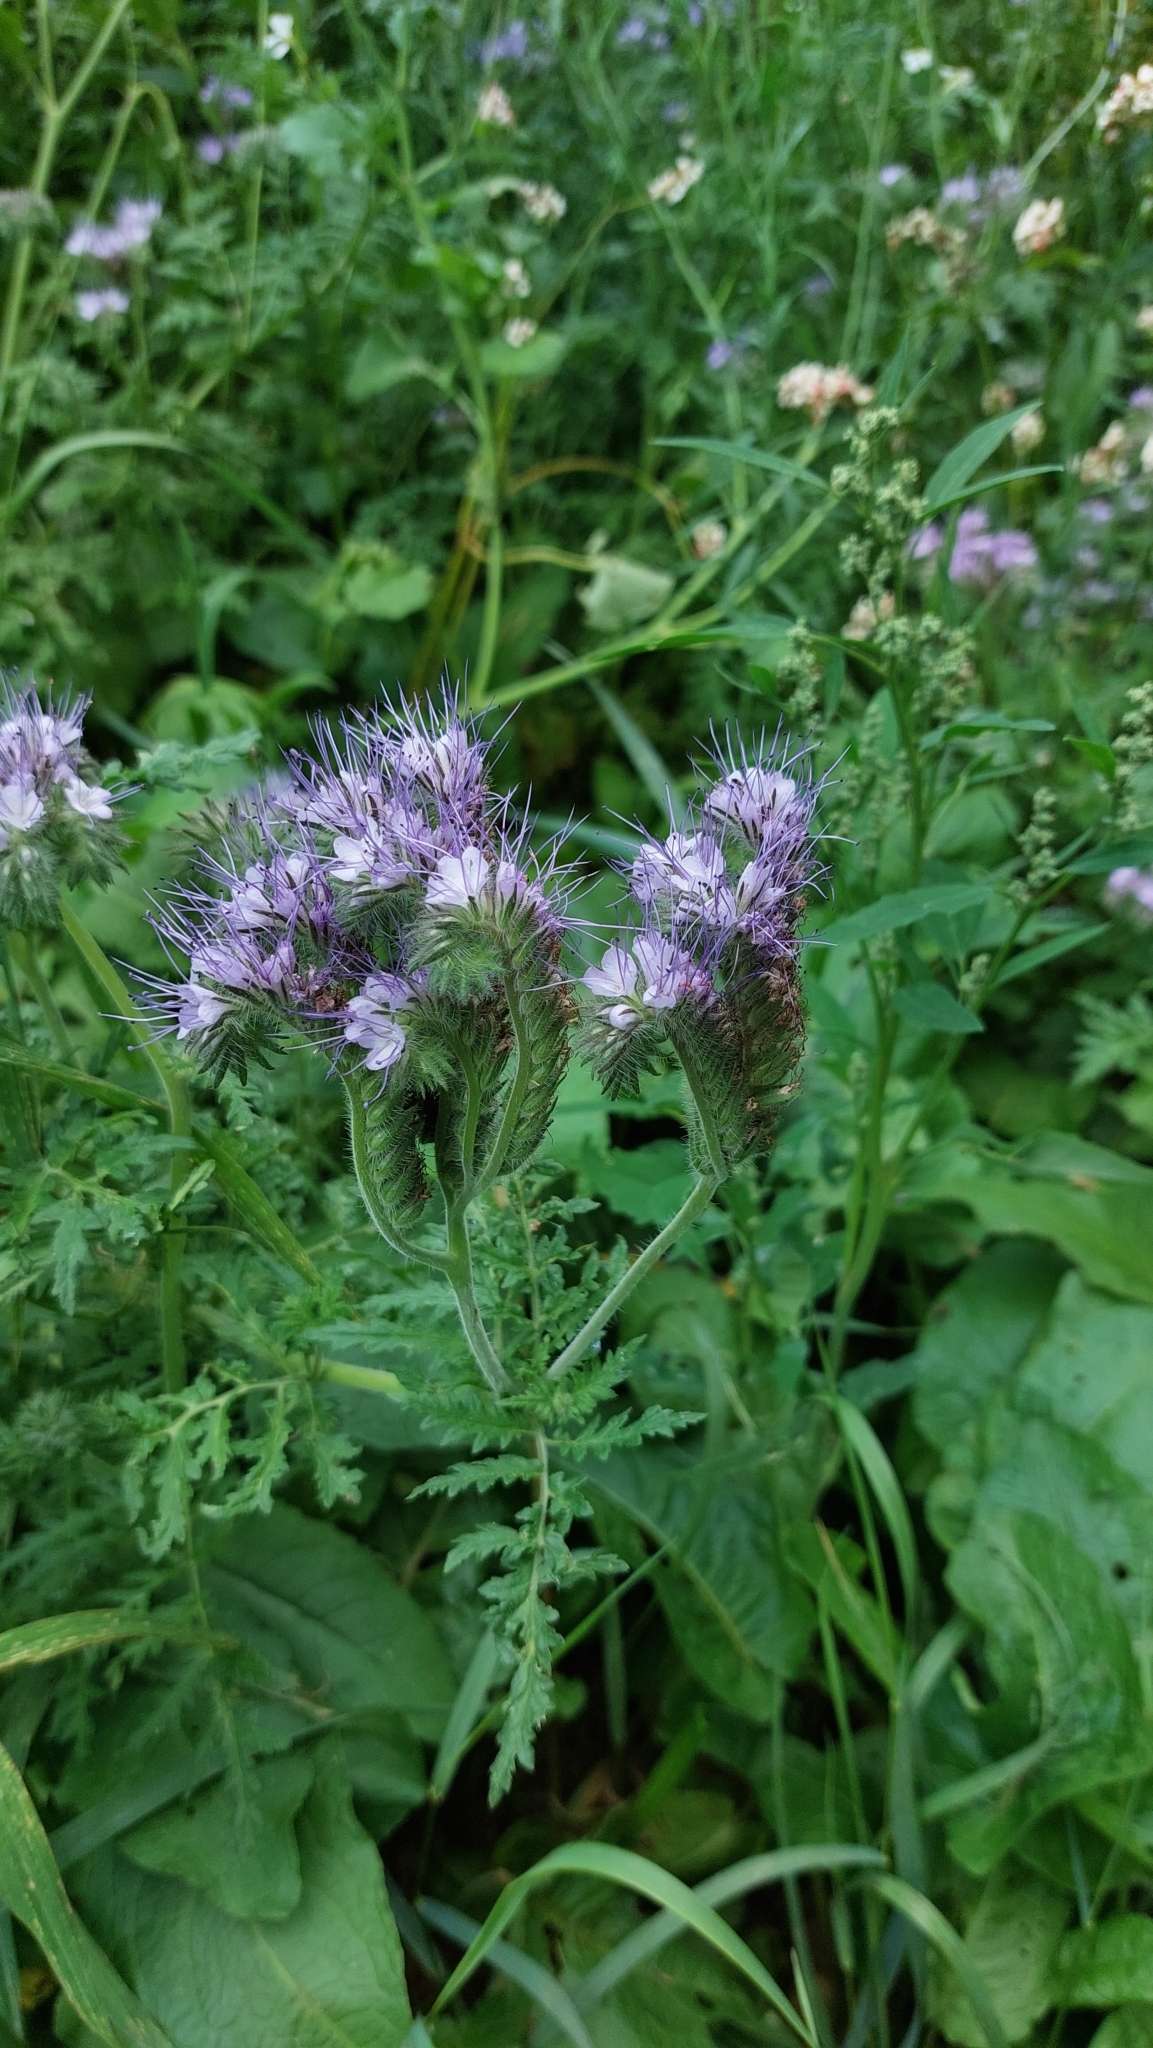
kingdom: Plantae
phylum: Tracheophyta
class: Magnoliopsida
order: Boraginales
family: Hydrophyllaceae
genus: Phacelia
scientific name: Phacelia tanacetifolia
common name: Phacelia
